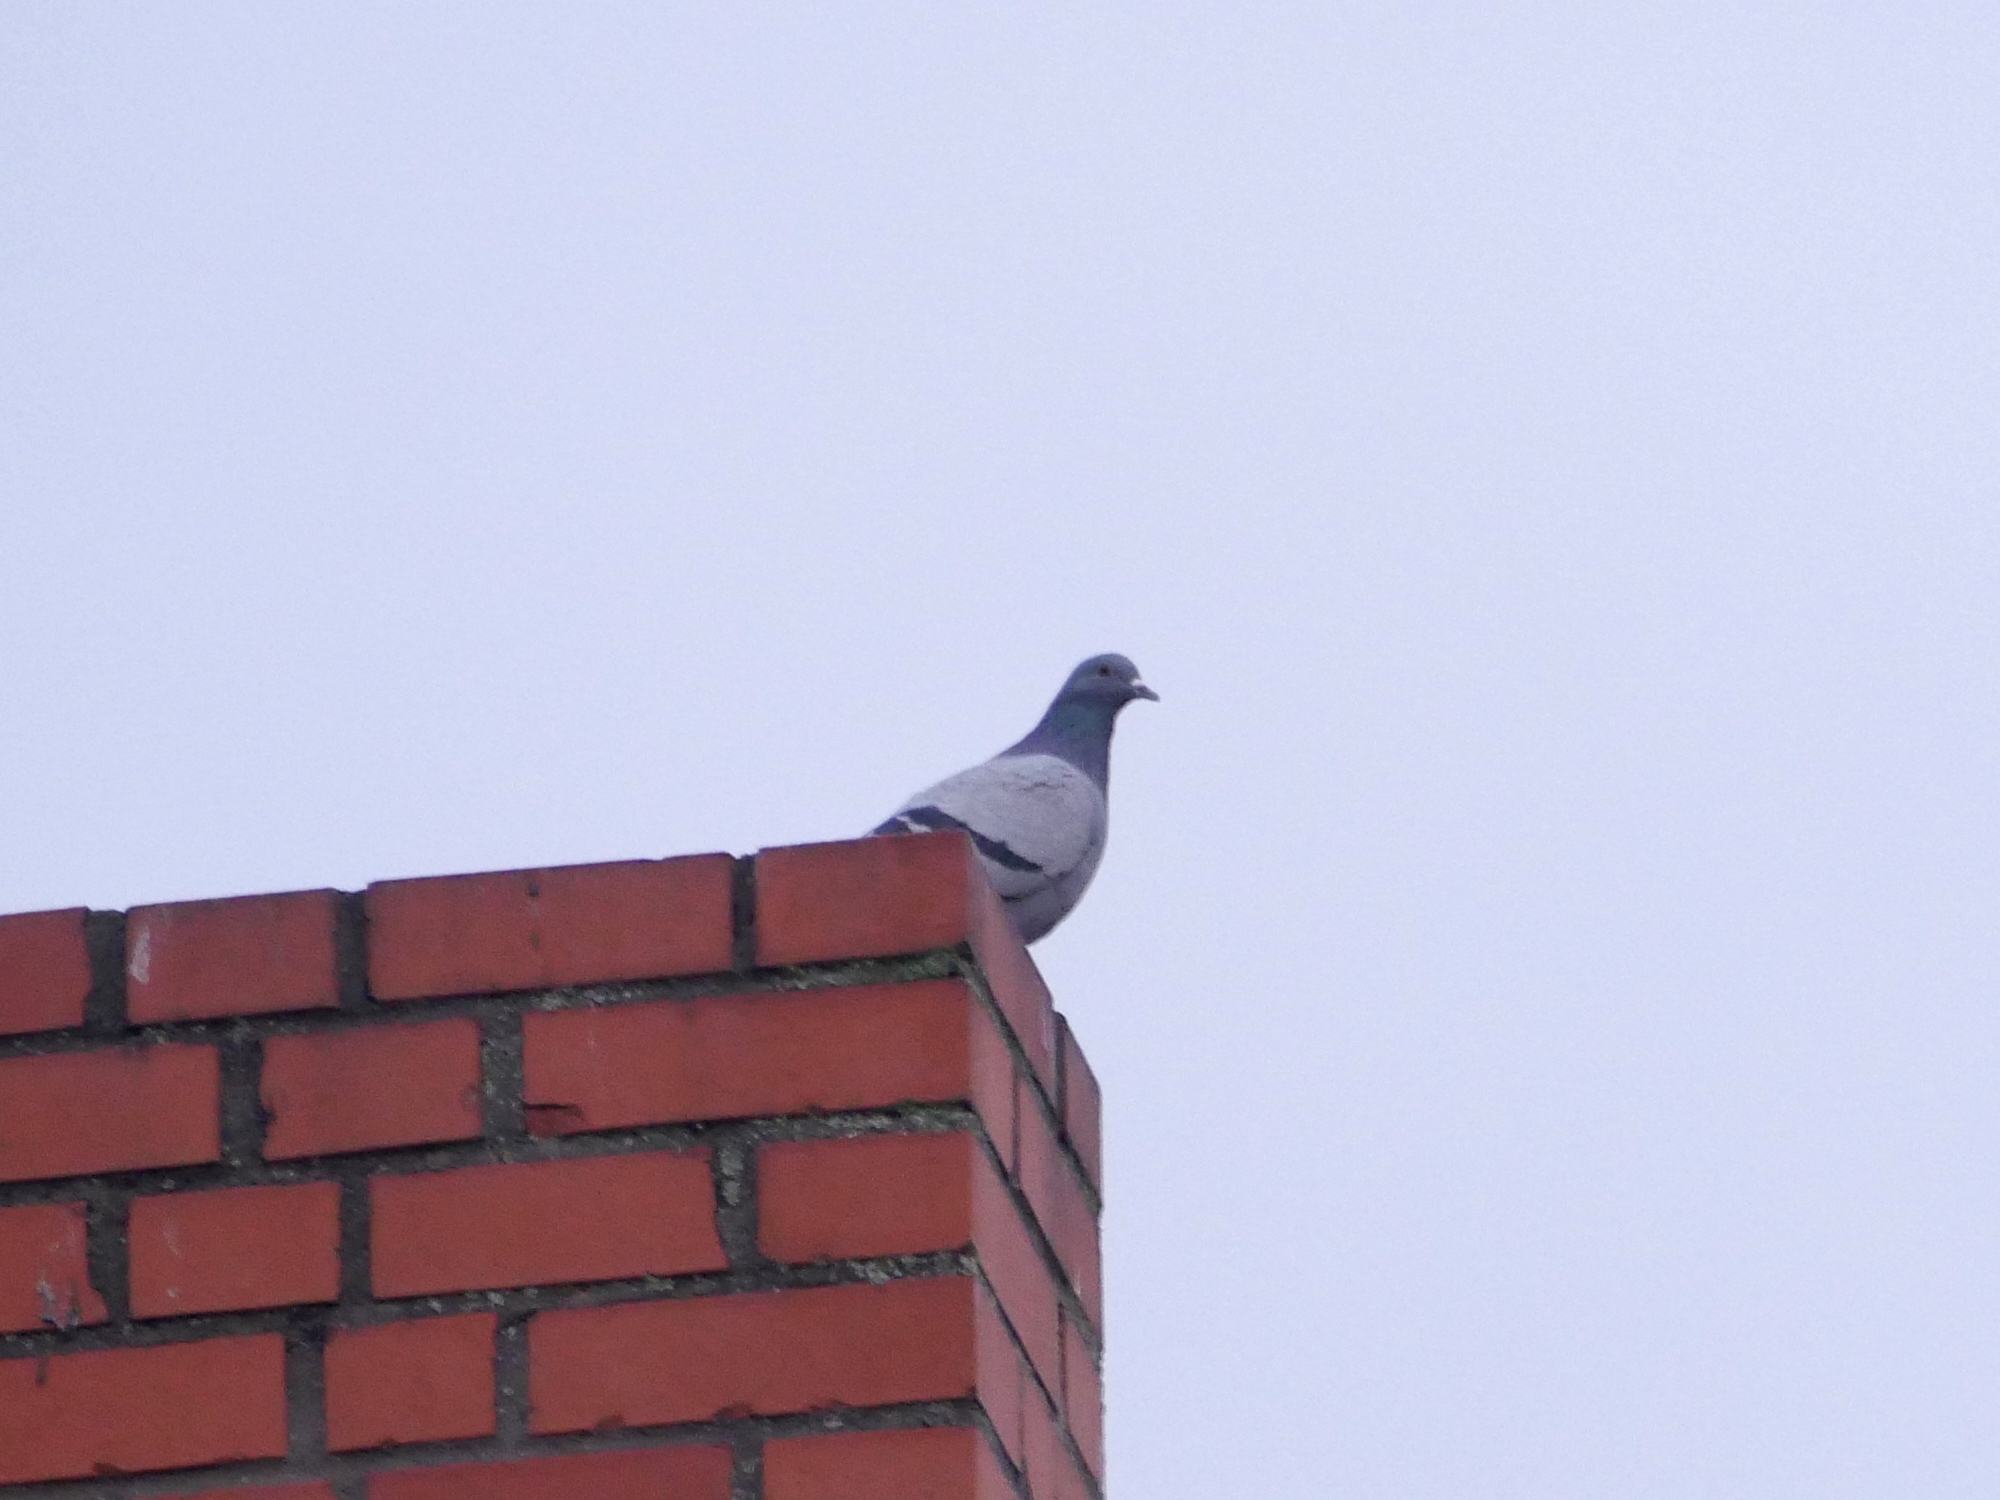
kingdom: Animalia
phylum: Chordata
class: Aves
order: Columbiformes
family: Columbidae
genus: Columba
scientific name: Columba livia
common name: Rock pigeon
